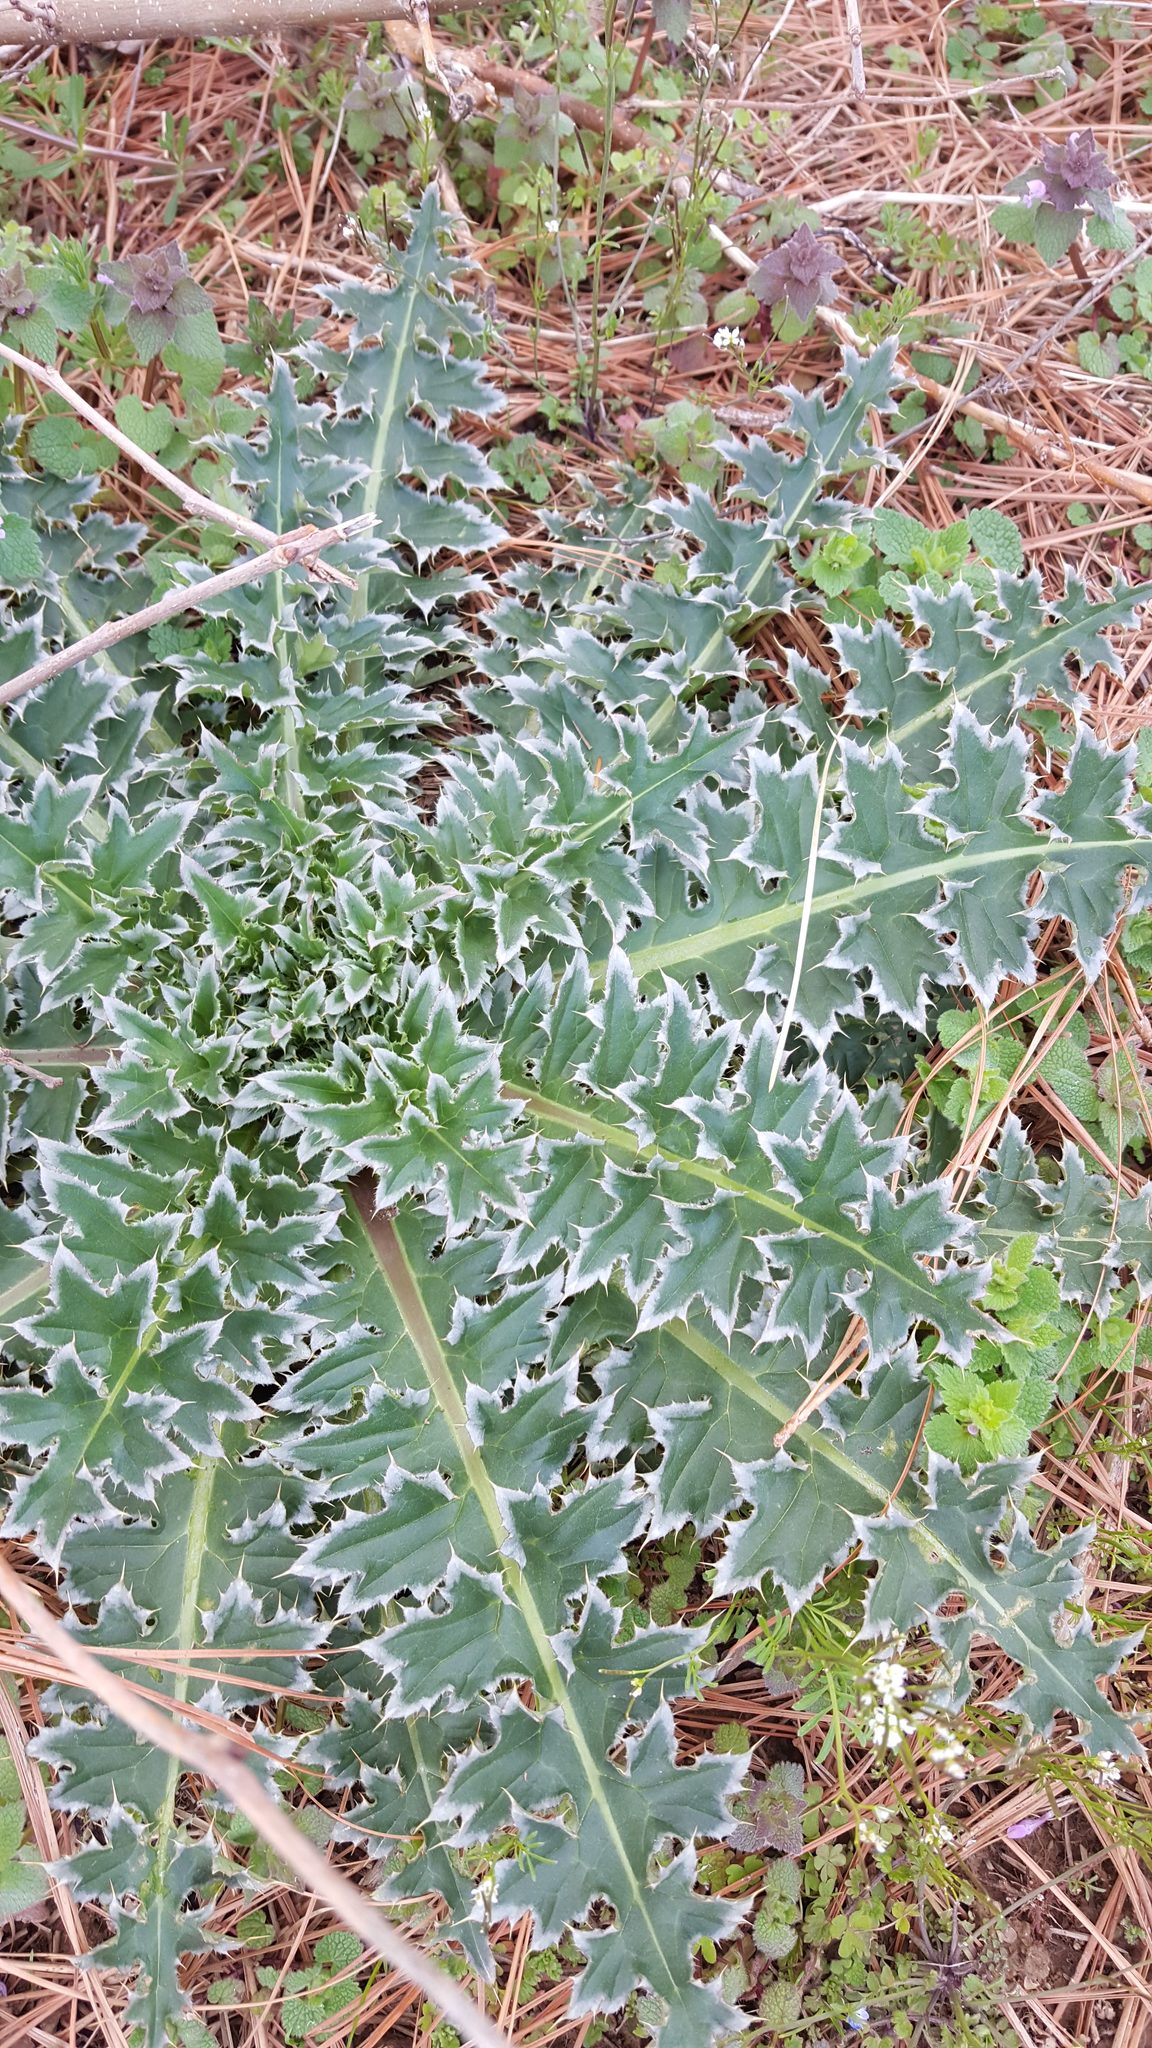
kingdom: Plantae
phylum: Tracheophyta
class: Magnoliopsida
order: Asterales
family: Asteraceae
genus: Carduus
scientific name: Carduus nutans
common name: Musk thistle
